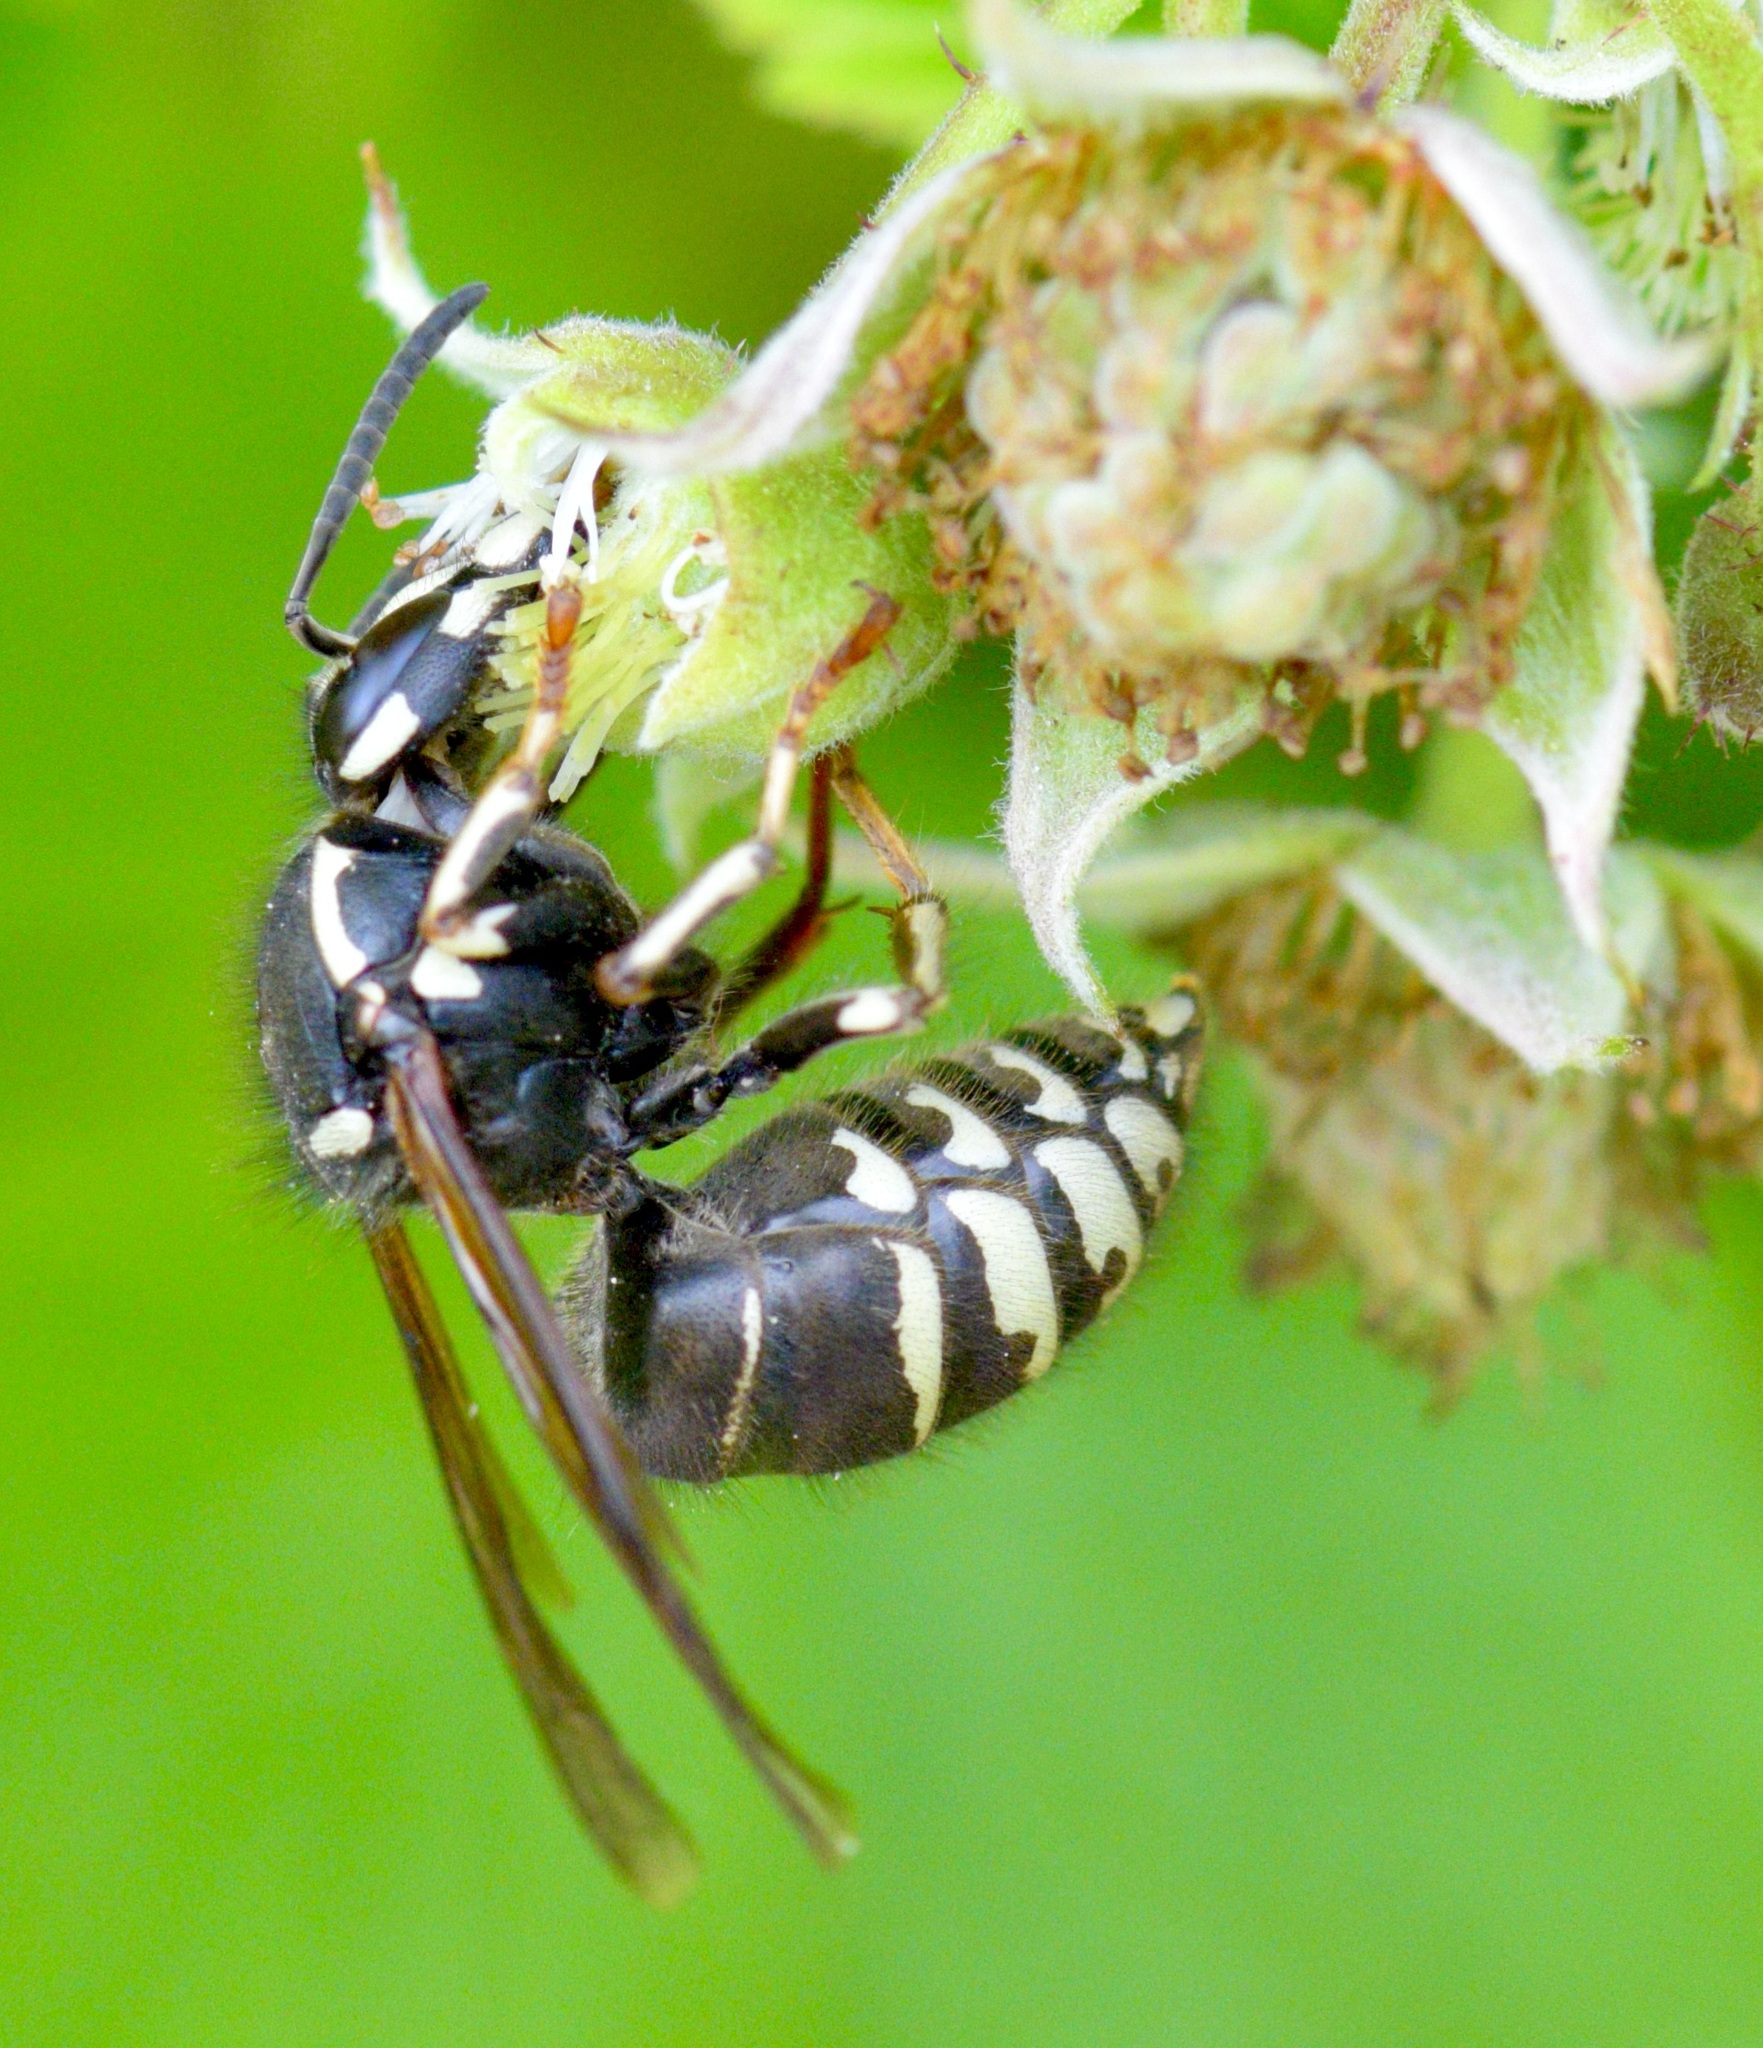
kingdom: Animalia
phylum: Arthropoda
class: Insecta
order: Hymenoptera
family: Vespidae
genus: Dolichovespula
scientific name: Dolichovespula adulterina
